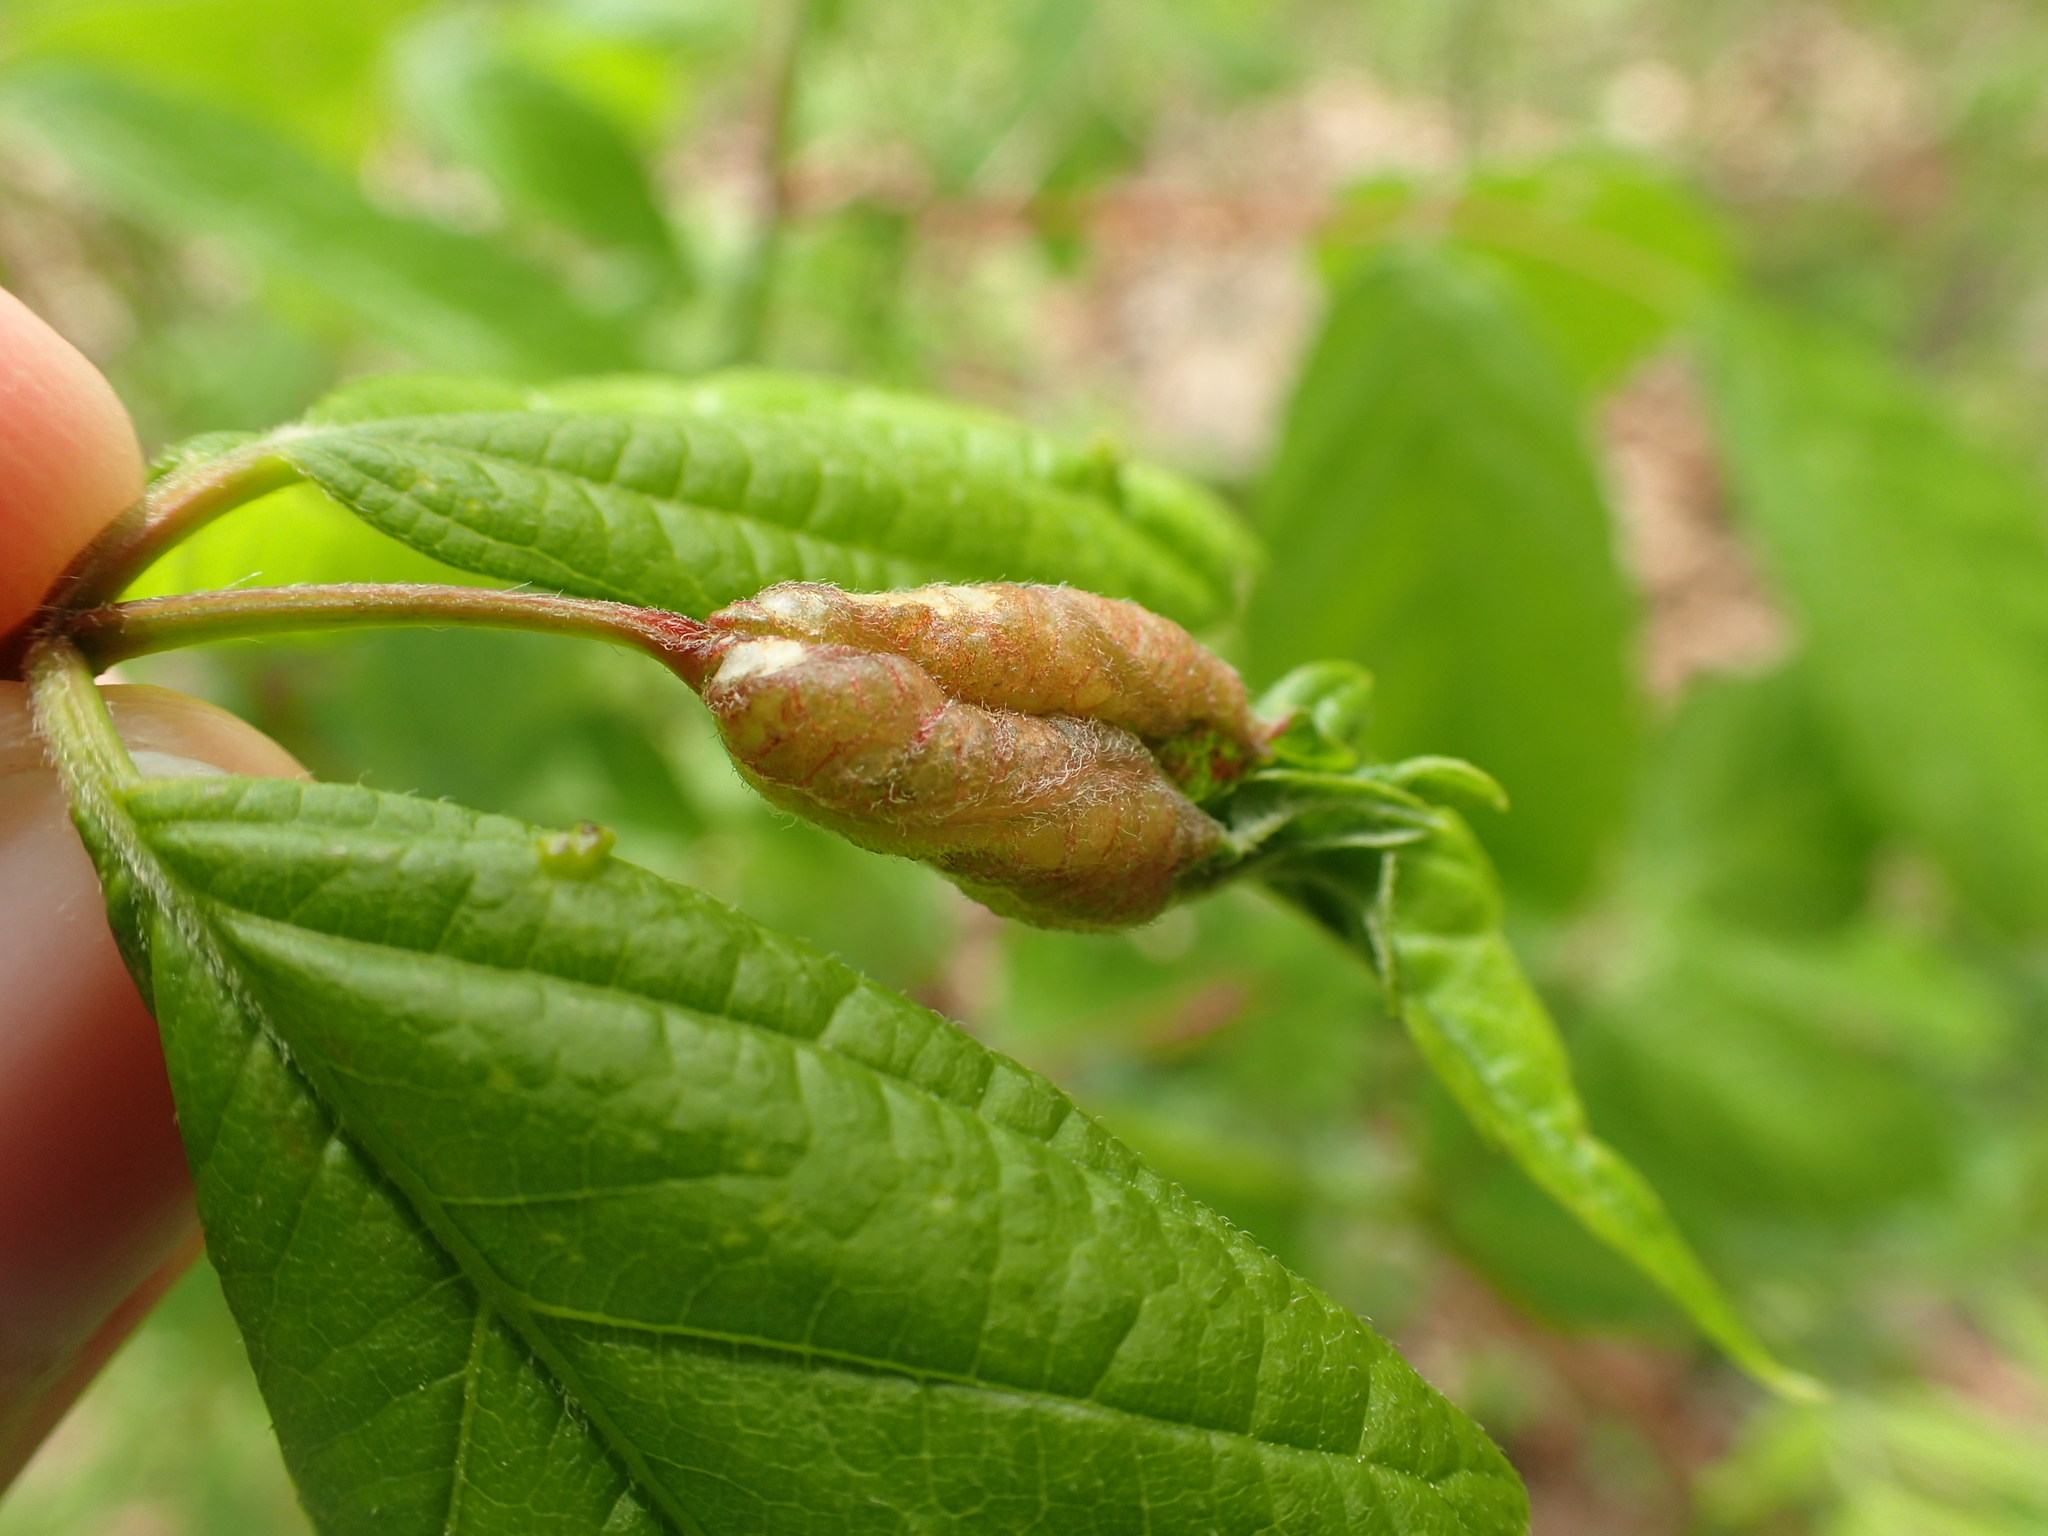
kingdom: Animalia
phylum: Arthropoda
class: Insecta
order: Diptera
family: Cecidomyiidae
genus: Contarinia
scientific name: Contarinia negundinis
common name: Boxelder budgall midge
